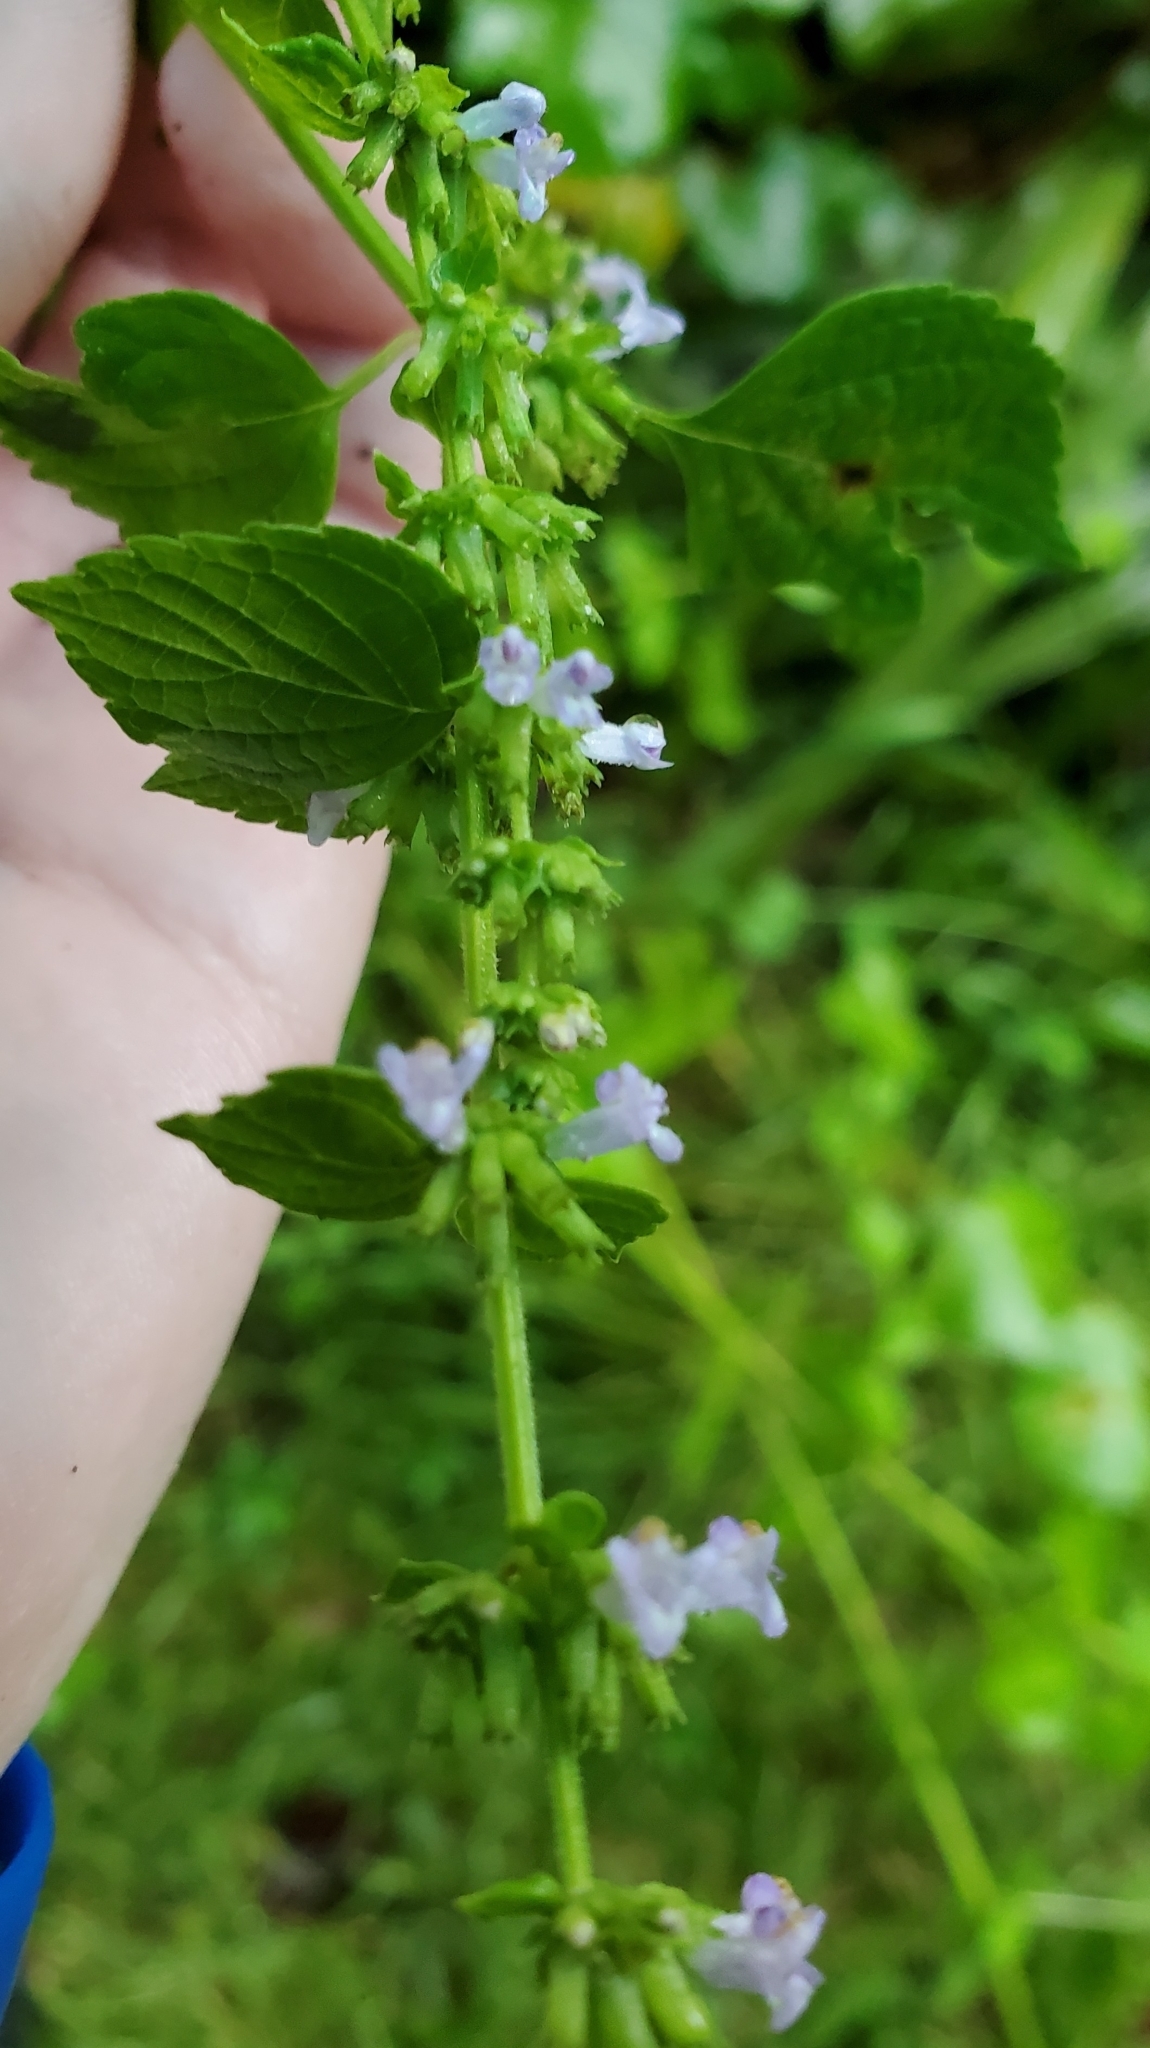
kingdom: Plantae
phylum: Tracheophyta
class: Magnoliopsida
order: Lamiales
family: Lamiaceae
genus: Cantinoa
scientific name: Cantinoa mutabilis
